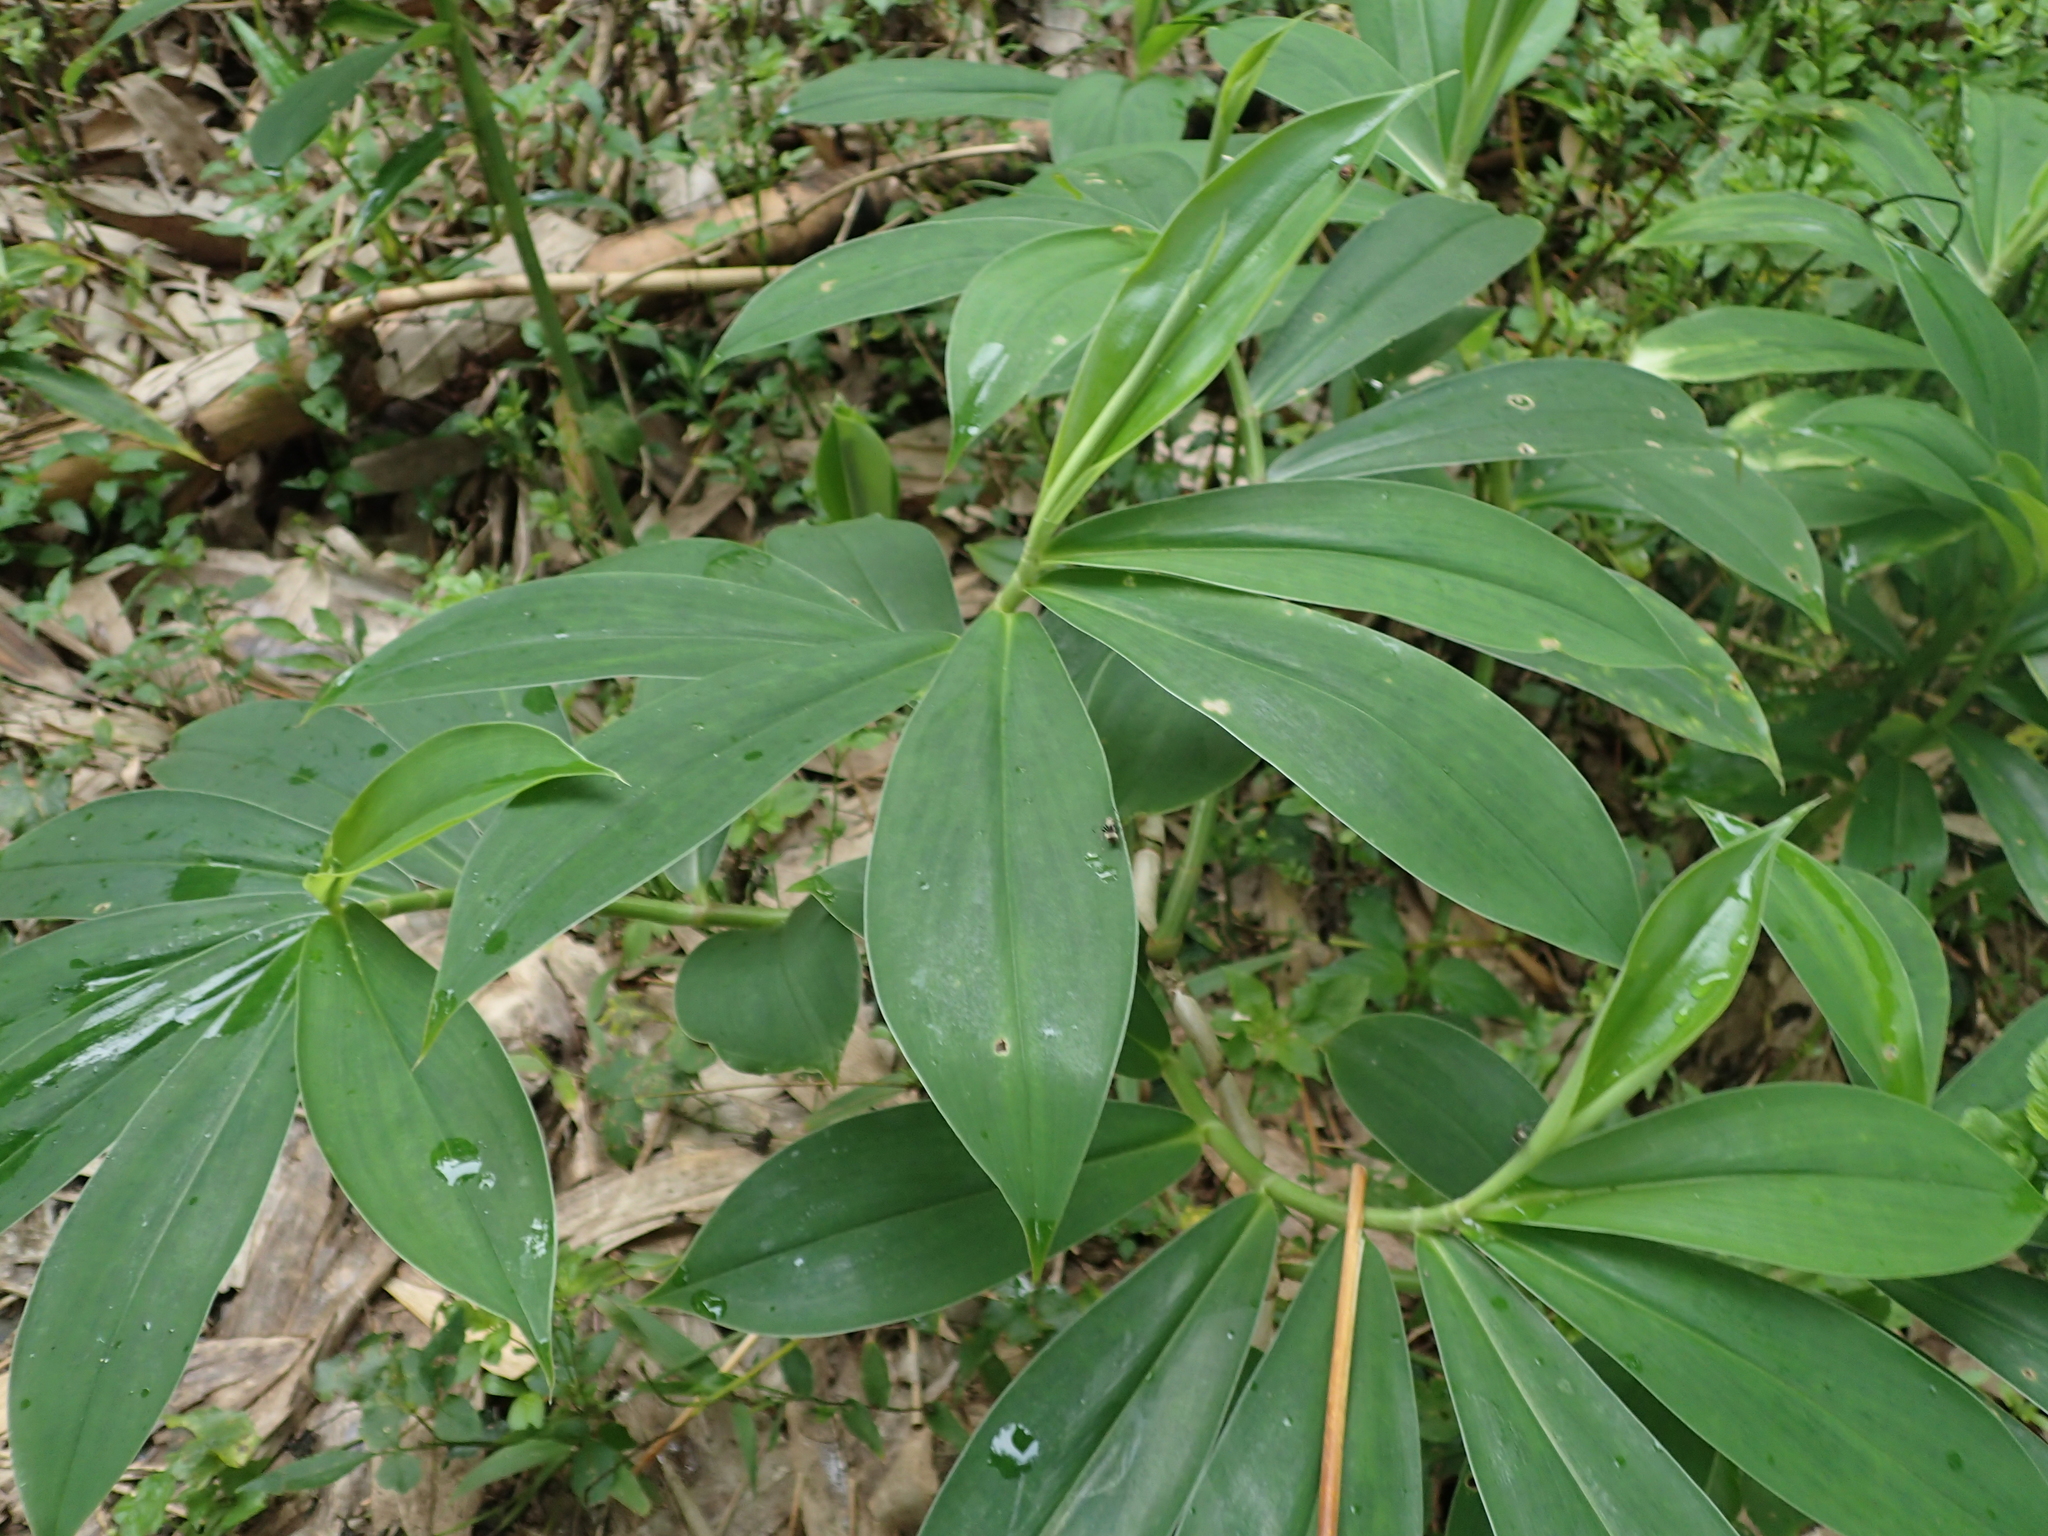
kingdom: Plantae
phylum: Tracheophyta
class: Liliopsida
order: Zingiberales
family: Costaceae
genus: Hellenia
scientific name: Hellenia speciosa
